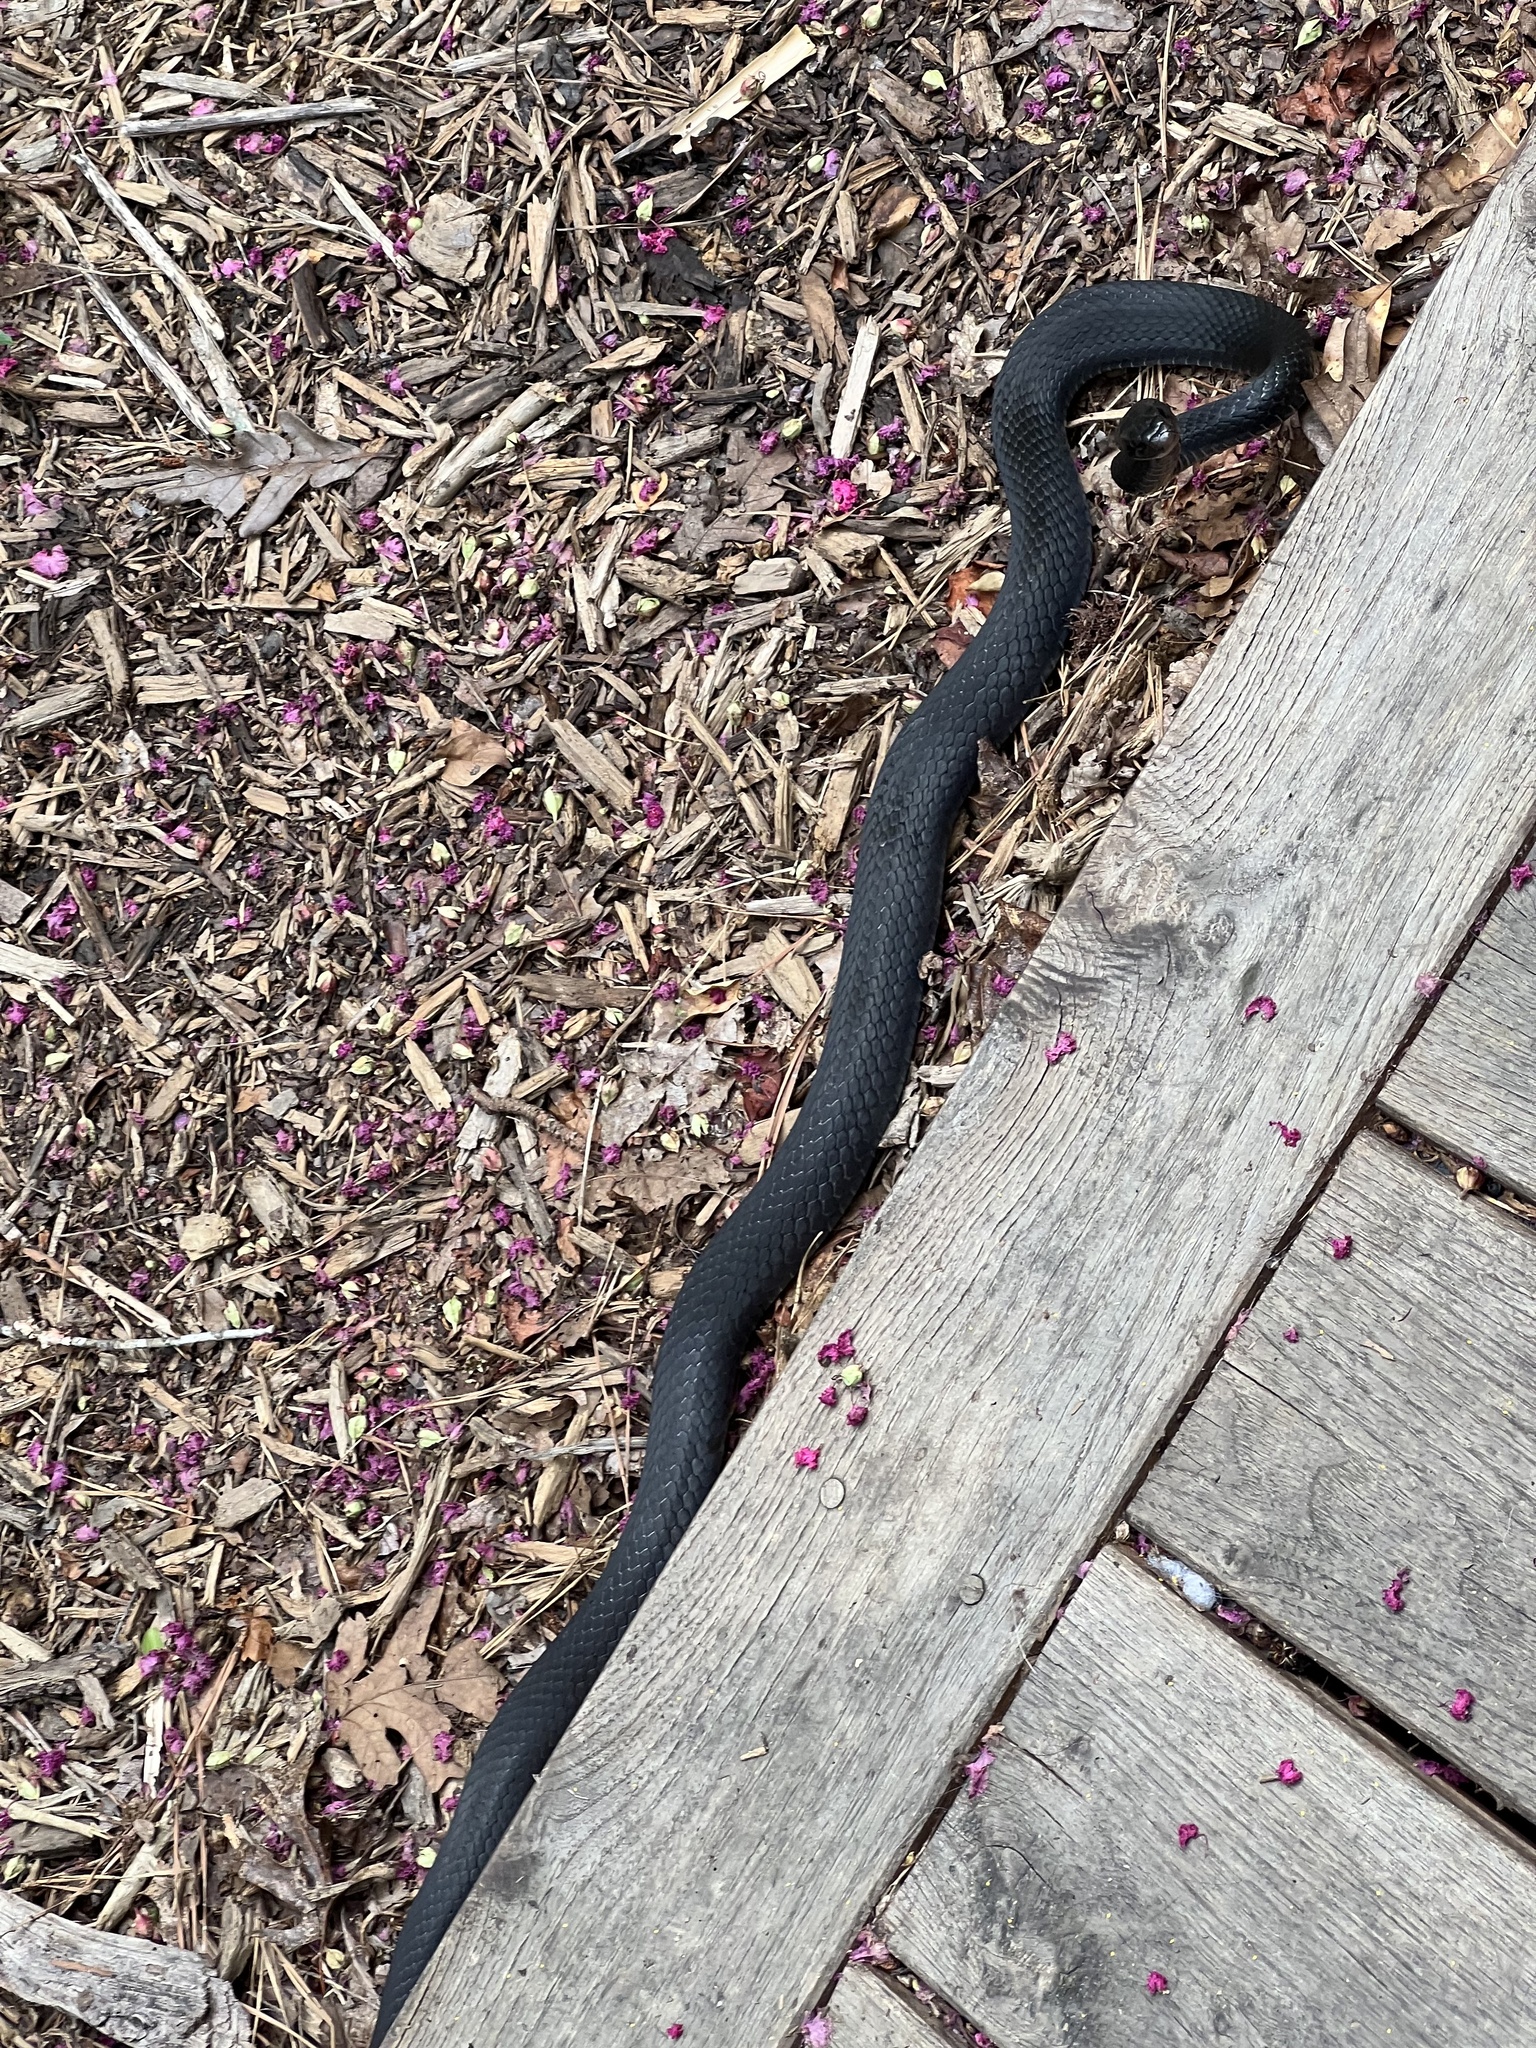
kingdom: Animalia
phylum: Chordata
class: Squamata
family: Colubridae
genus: Coluber
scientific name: Coluber constrictor
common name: Eastern racer
